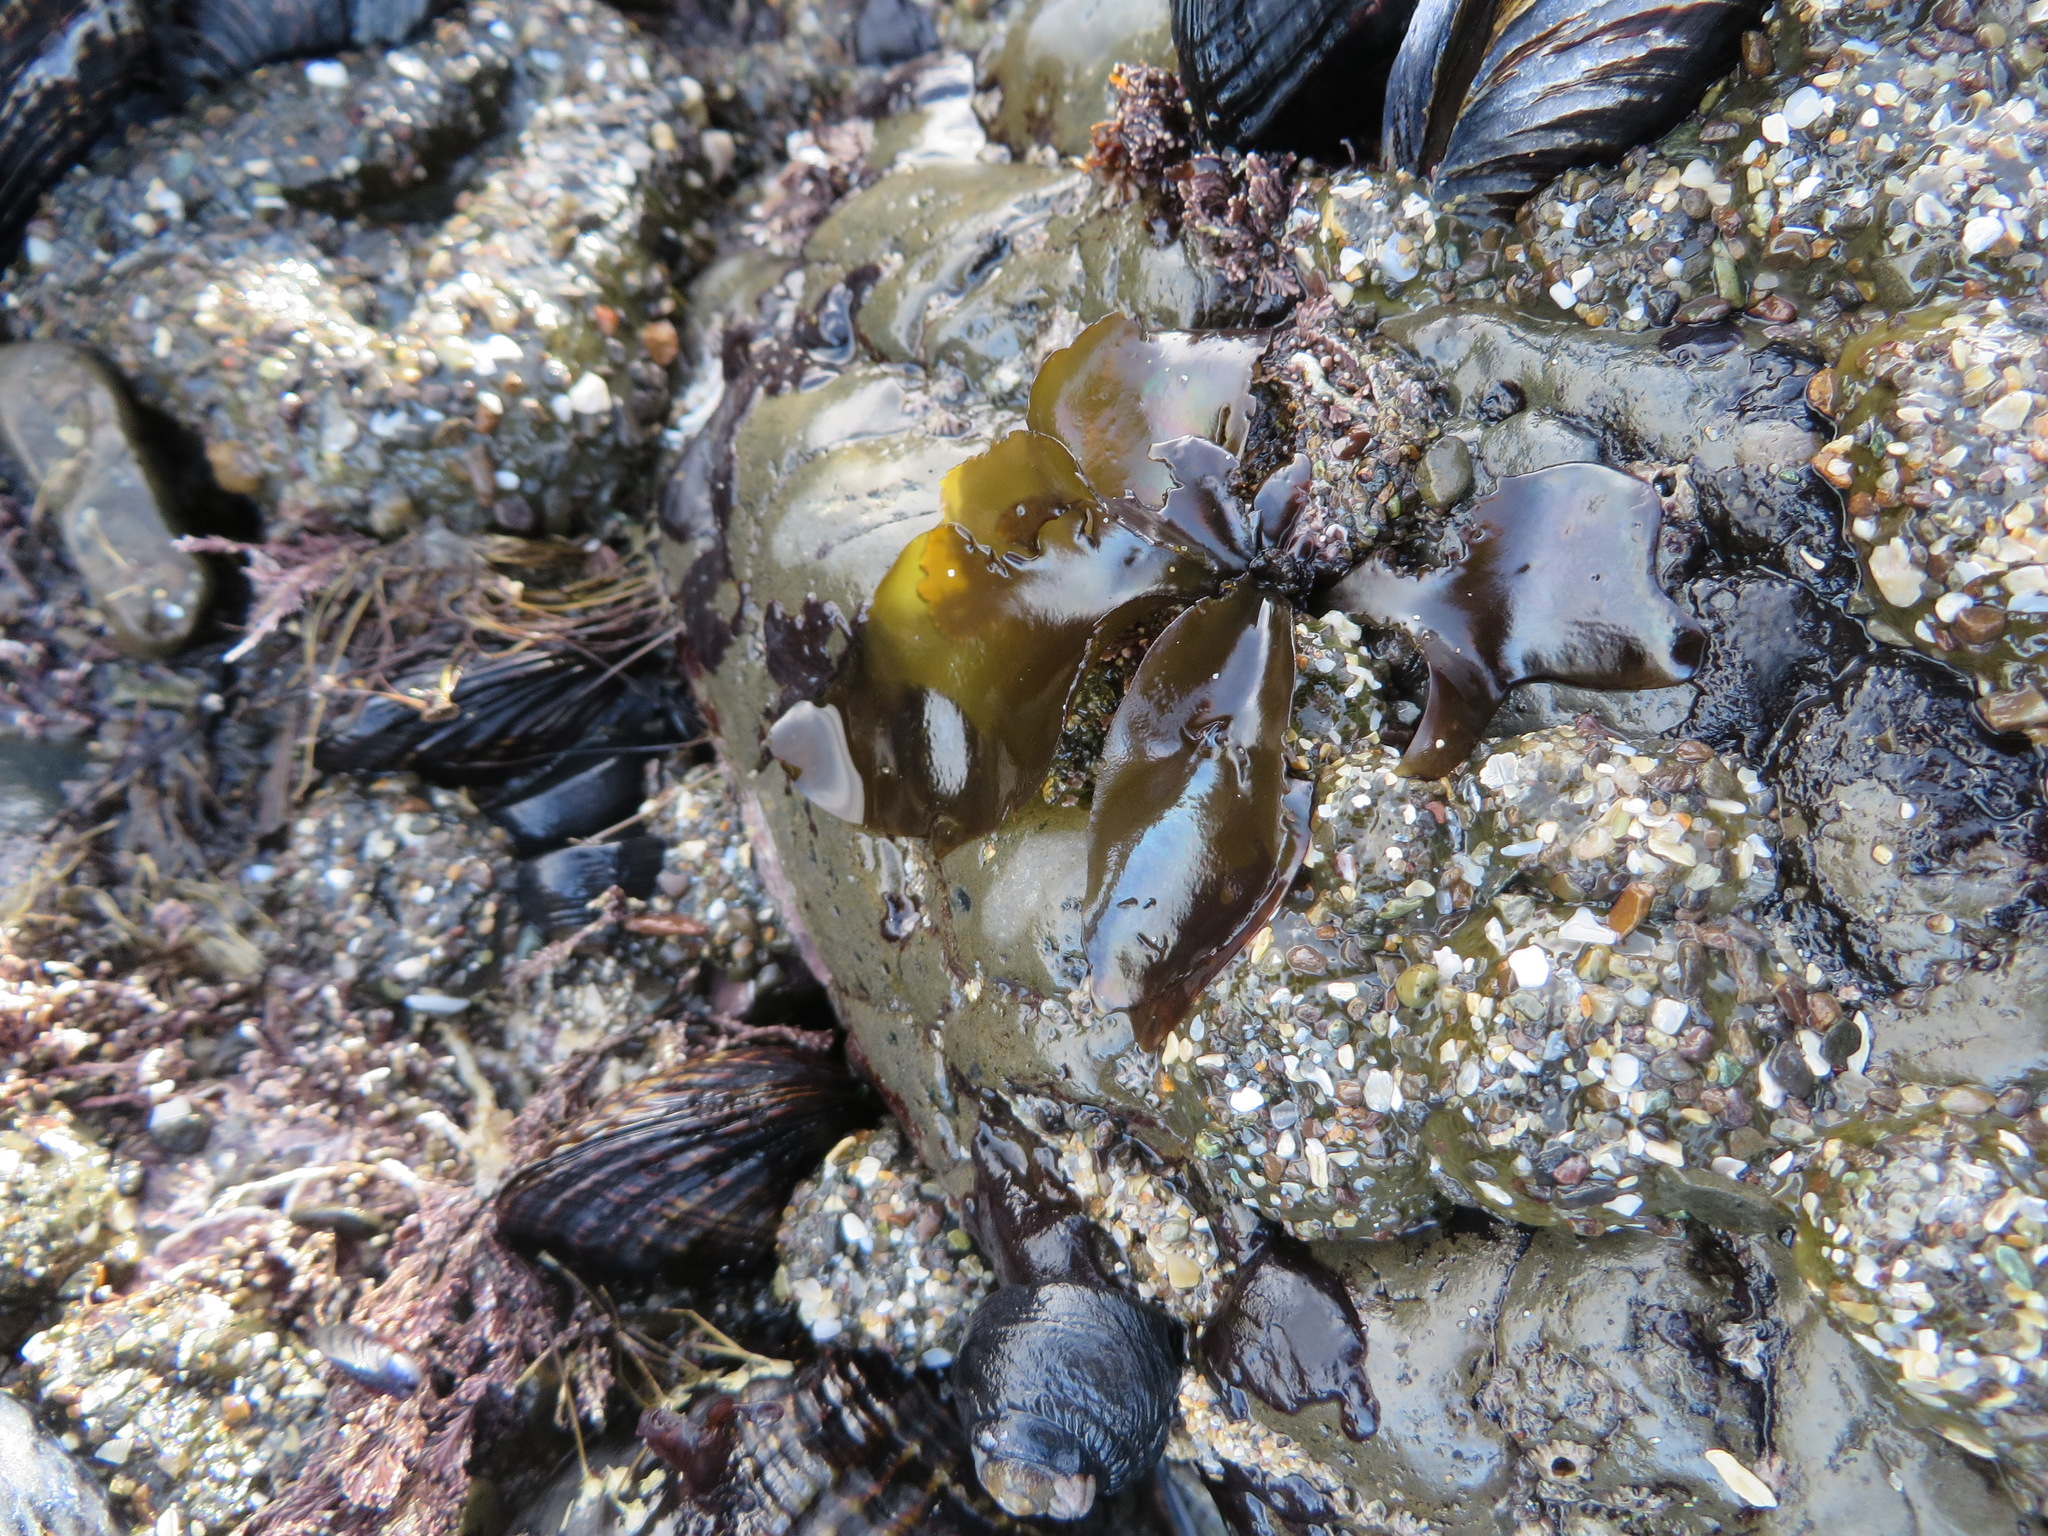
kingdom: Plantae
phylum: Rhodophyta
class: Florideophyceae
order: Gigartinales
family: Gigartinaceae
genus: Mazzaella
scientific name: Mazzaella flaccida
